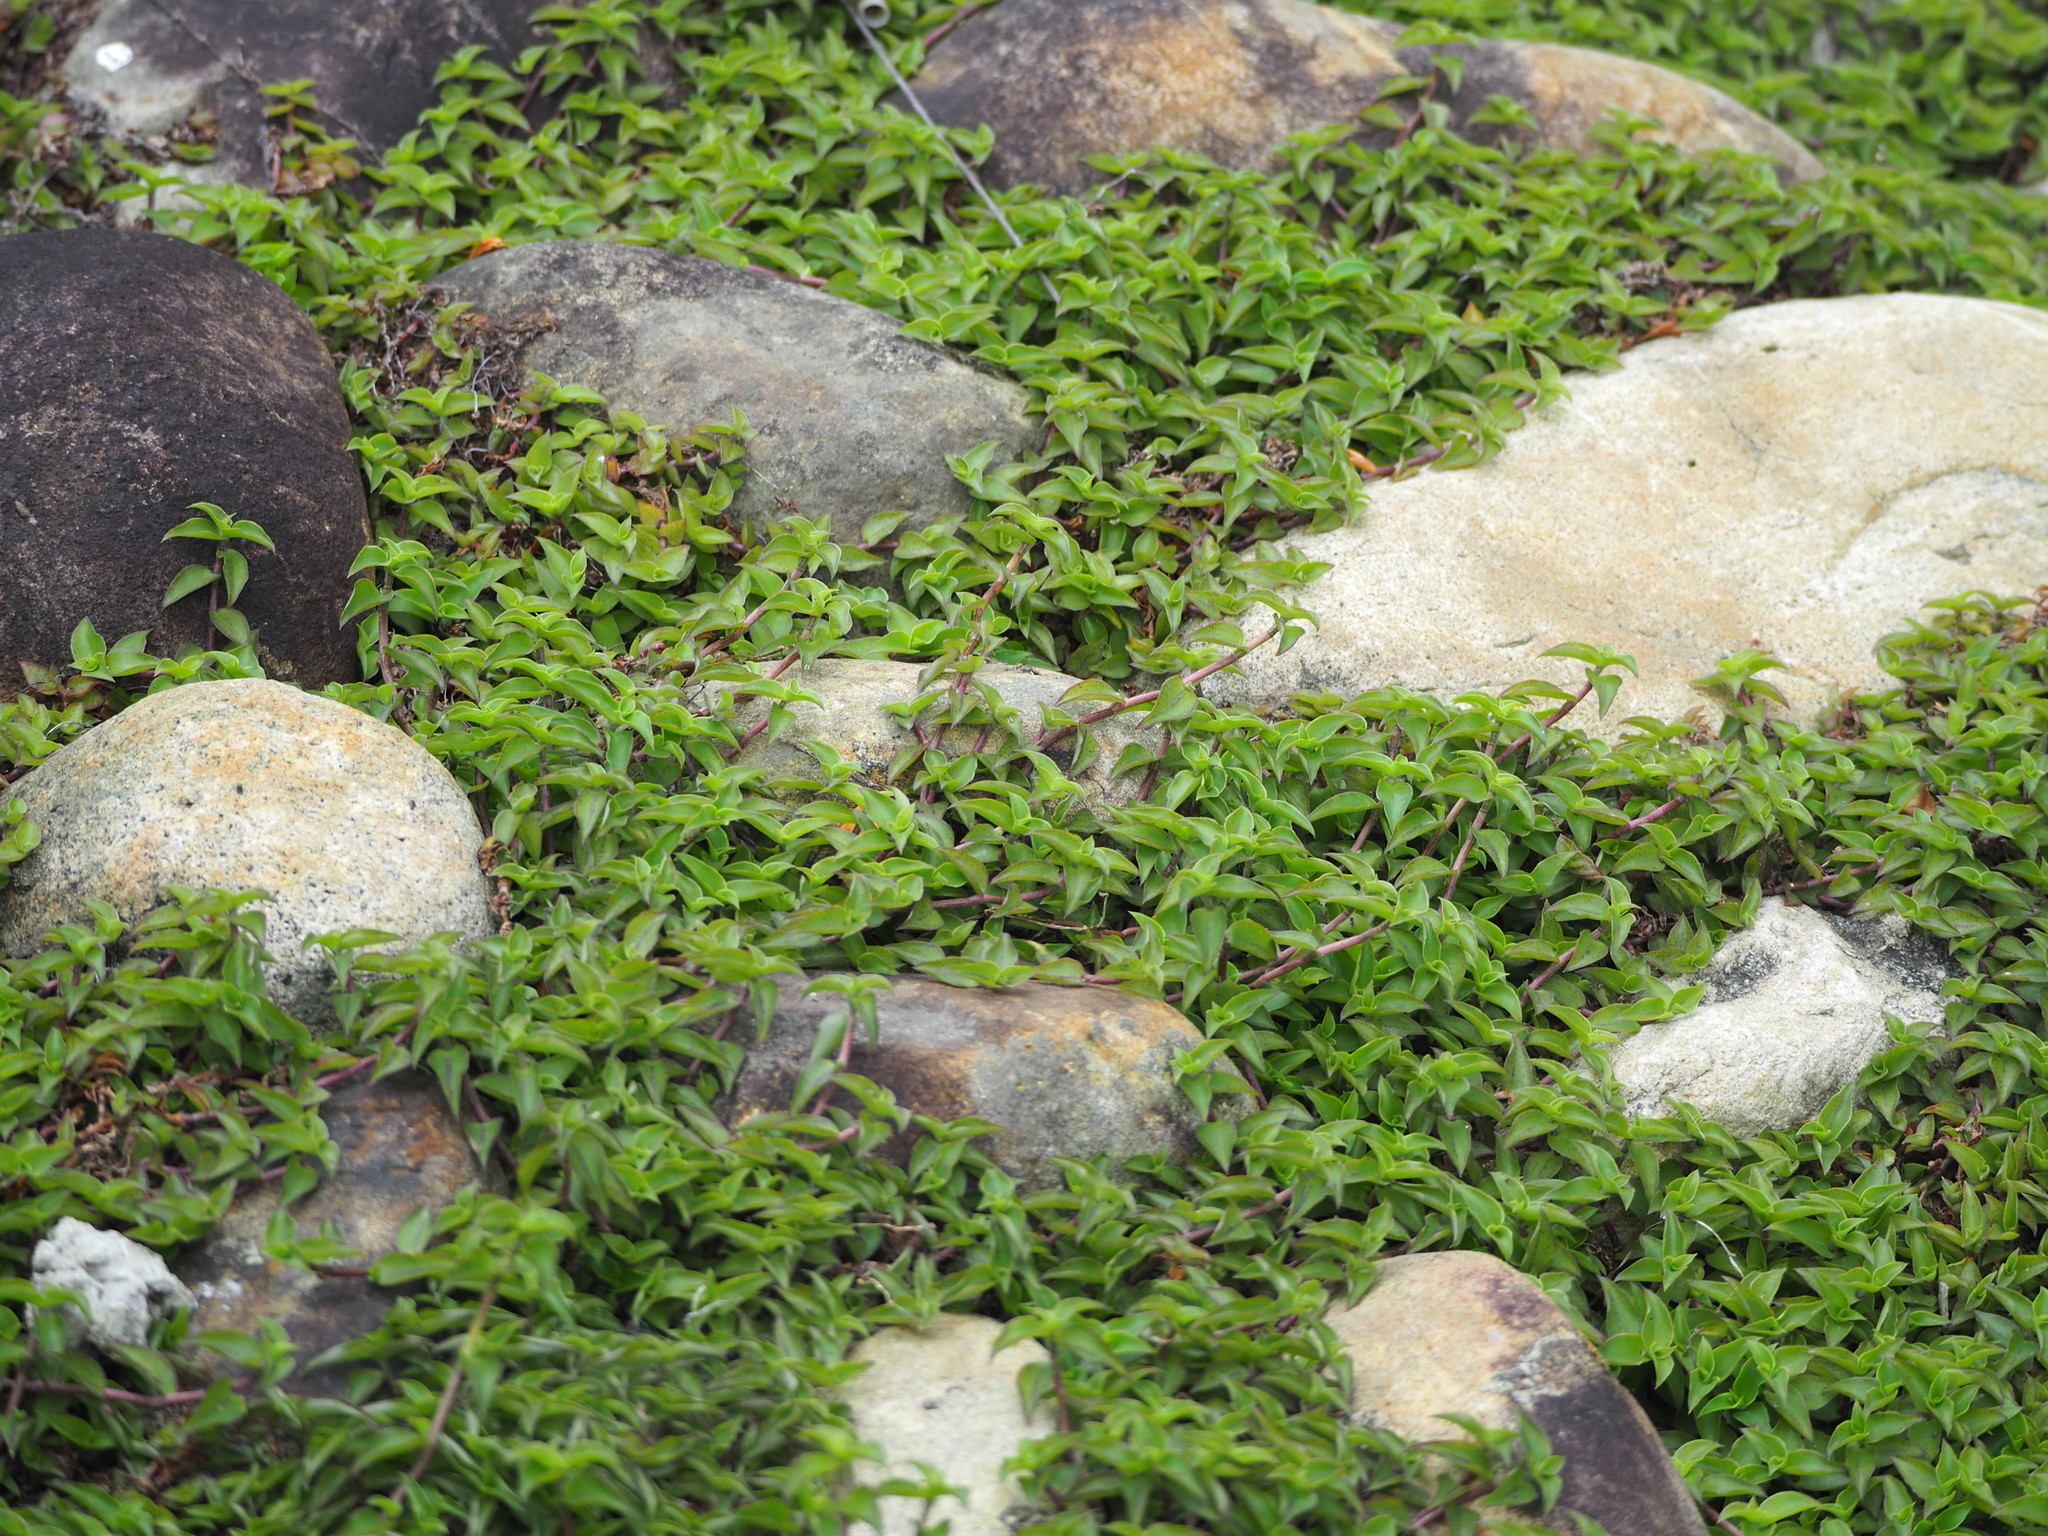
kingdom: Plantae
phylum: Tracheophyta
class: Liliopsida
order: Commelinales
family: Commelinaceae
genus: Callisia
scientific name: Callisia repens
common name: Creeping inchplant
